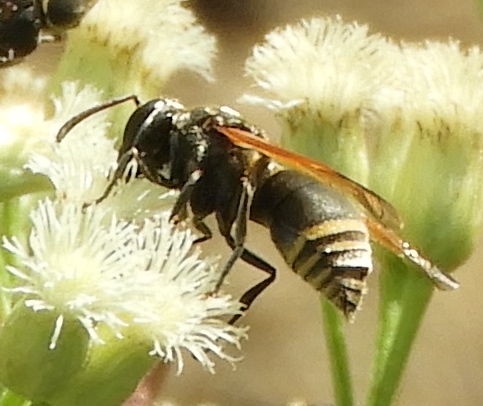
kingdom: Animalia
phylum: Arthropoda
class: Insecta
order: Hymenoptera
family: Eumenidae
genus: Pachodynerus
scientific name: Pachodynerus
